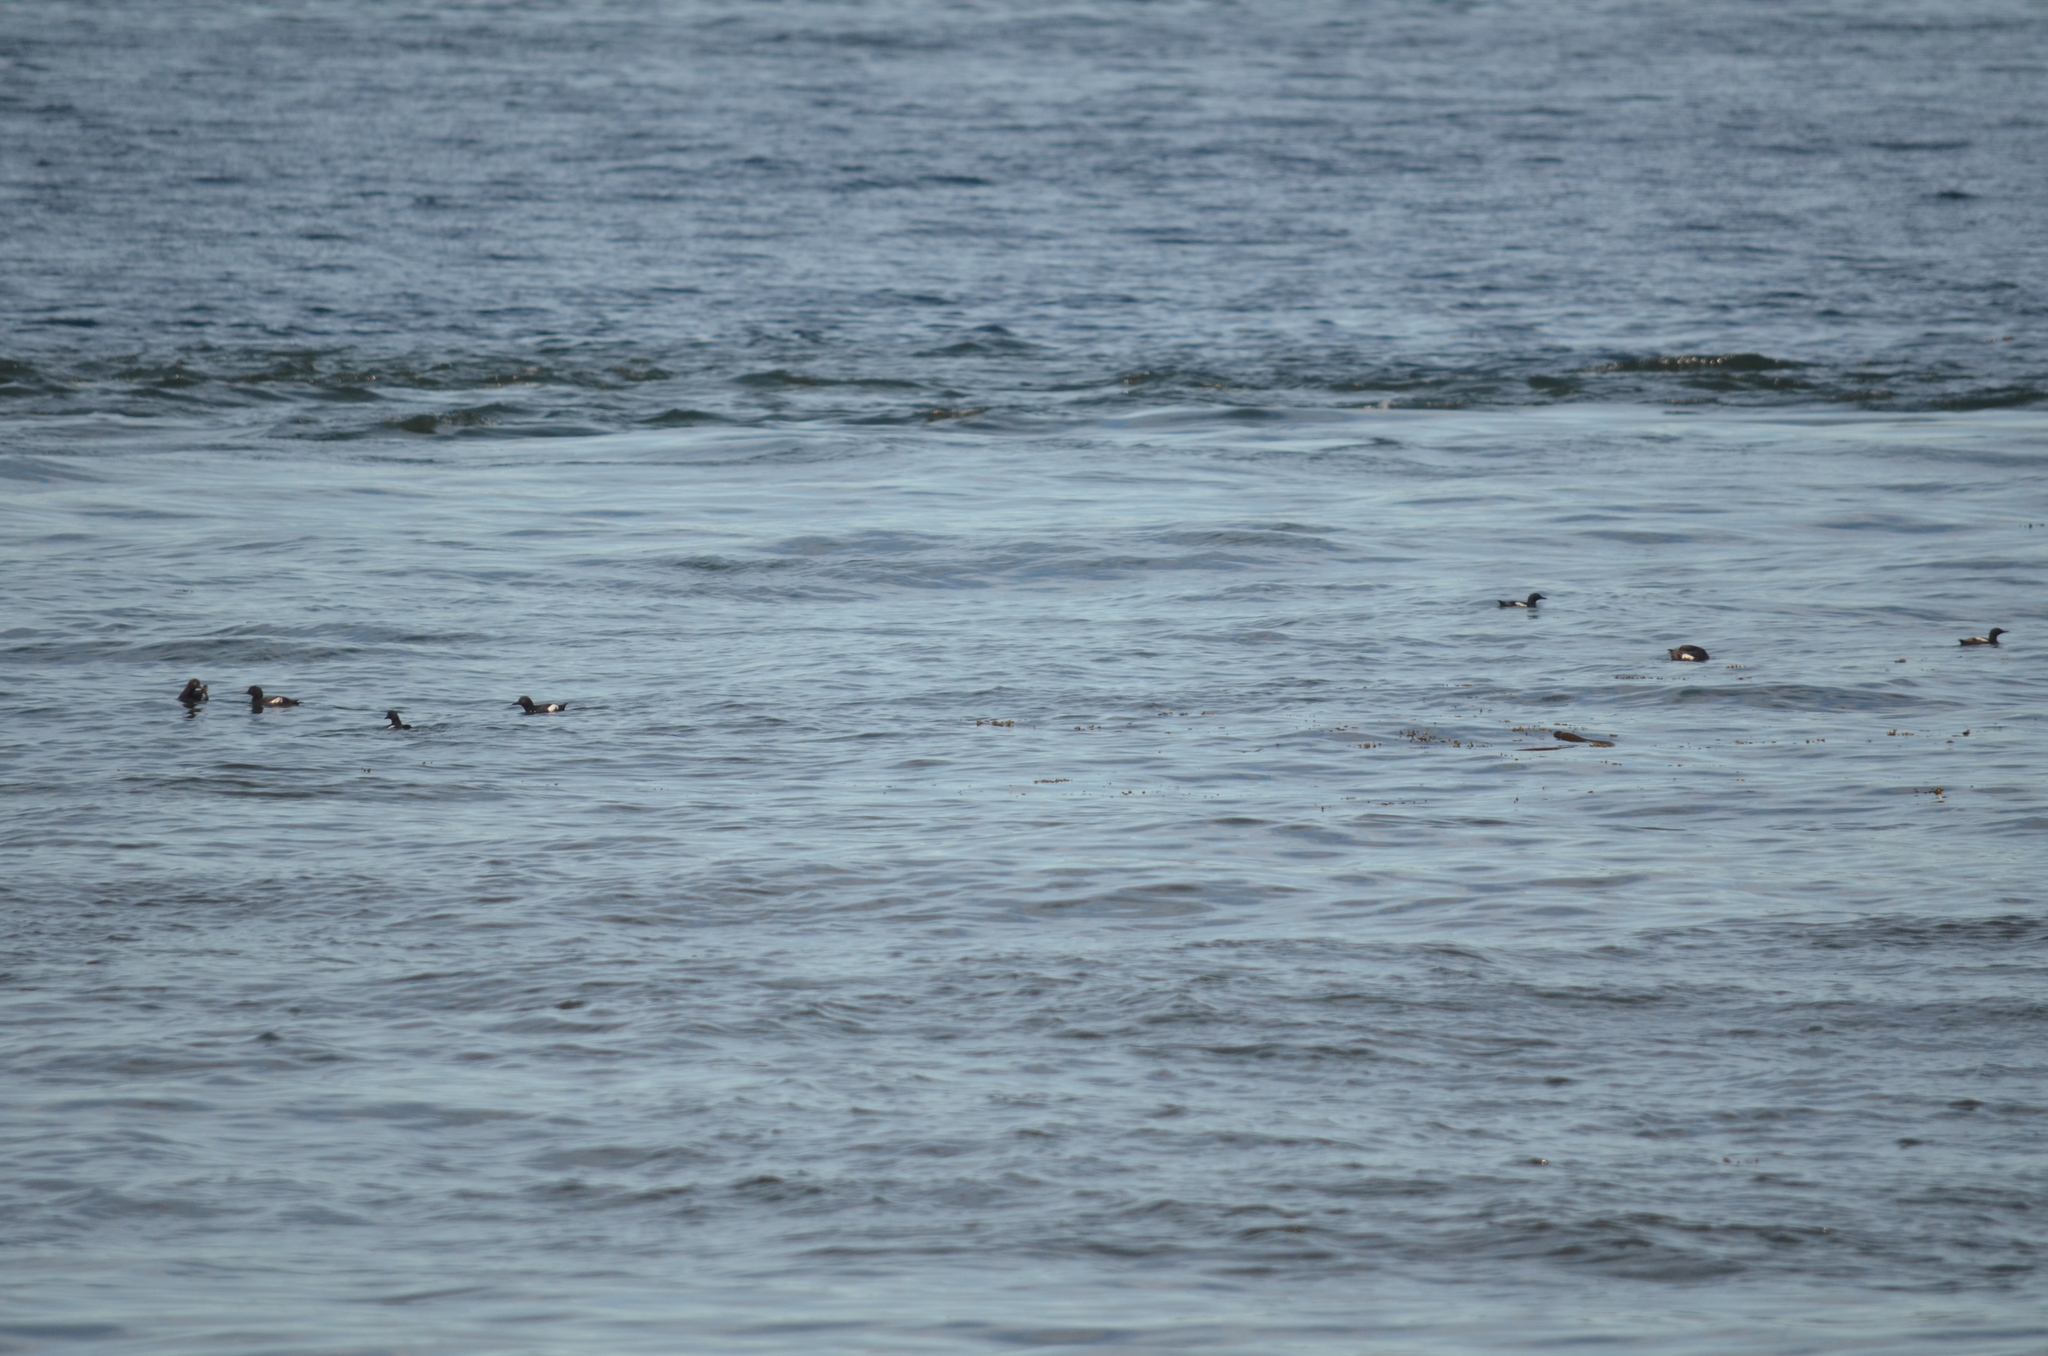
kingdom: Animalia
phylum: Chordata
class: Aves
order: Charadriiformes
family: Alcidae
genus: Cepphus
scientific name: Cepphus columba
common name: Pigeon guillemot
